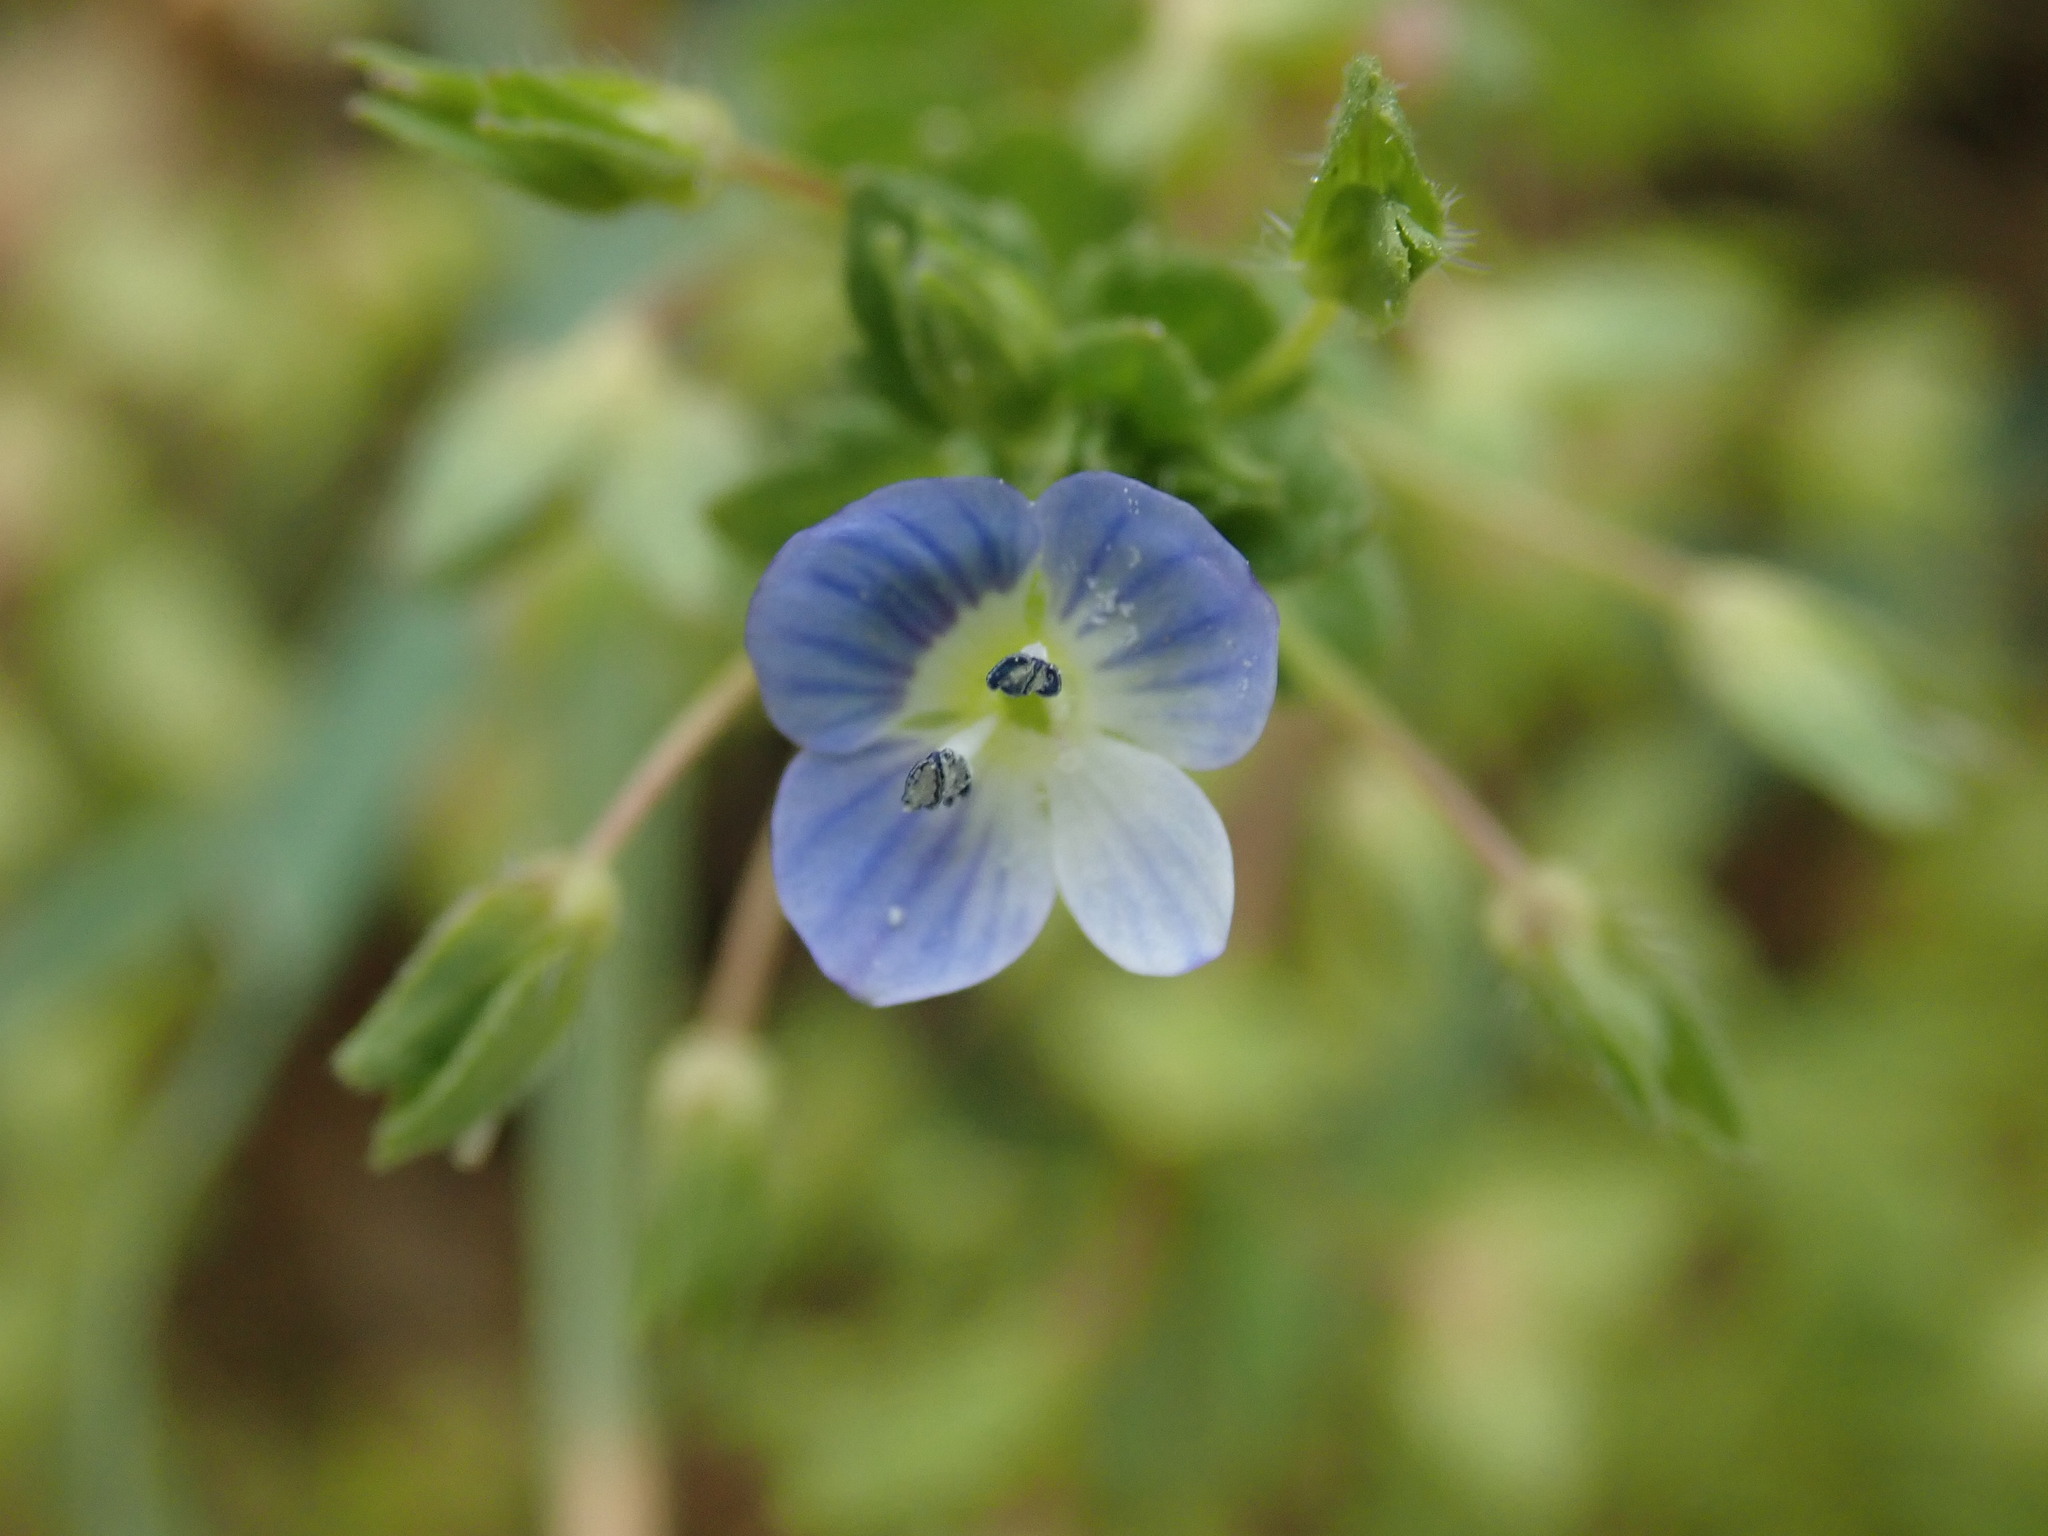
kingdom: Plantae
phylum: Tracheophyta
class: Magnoliopsida
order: Lamiales
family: Plantaginaceae
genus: Veronica
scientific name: Veronica persica
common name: Common field-speedwell
